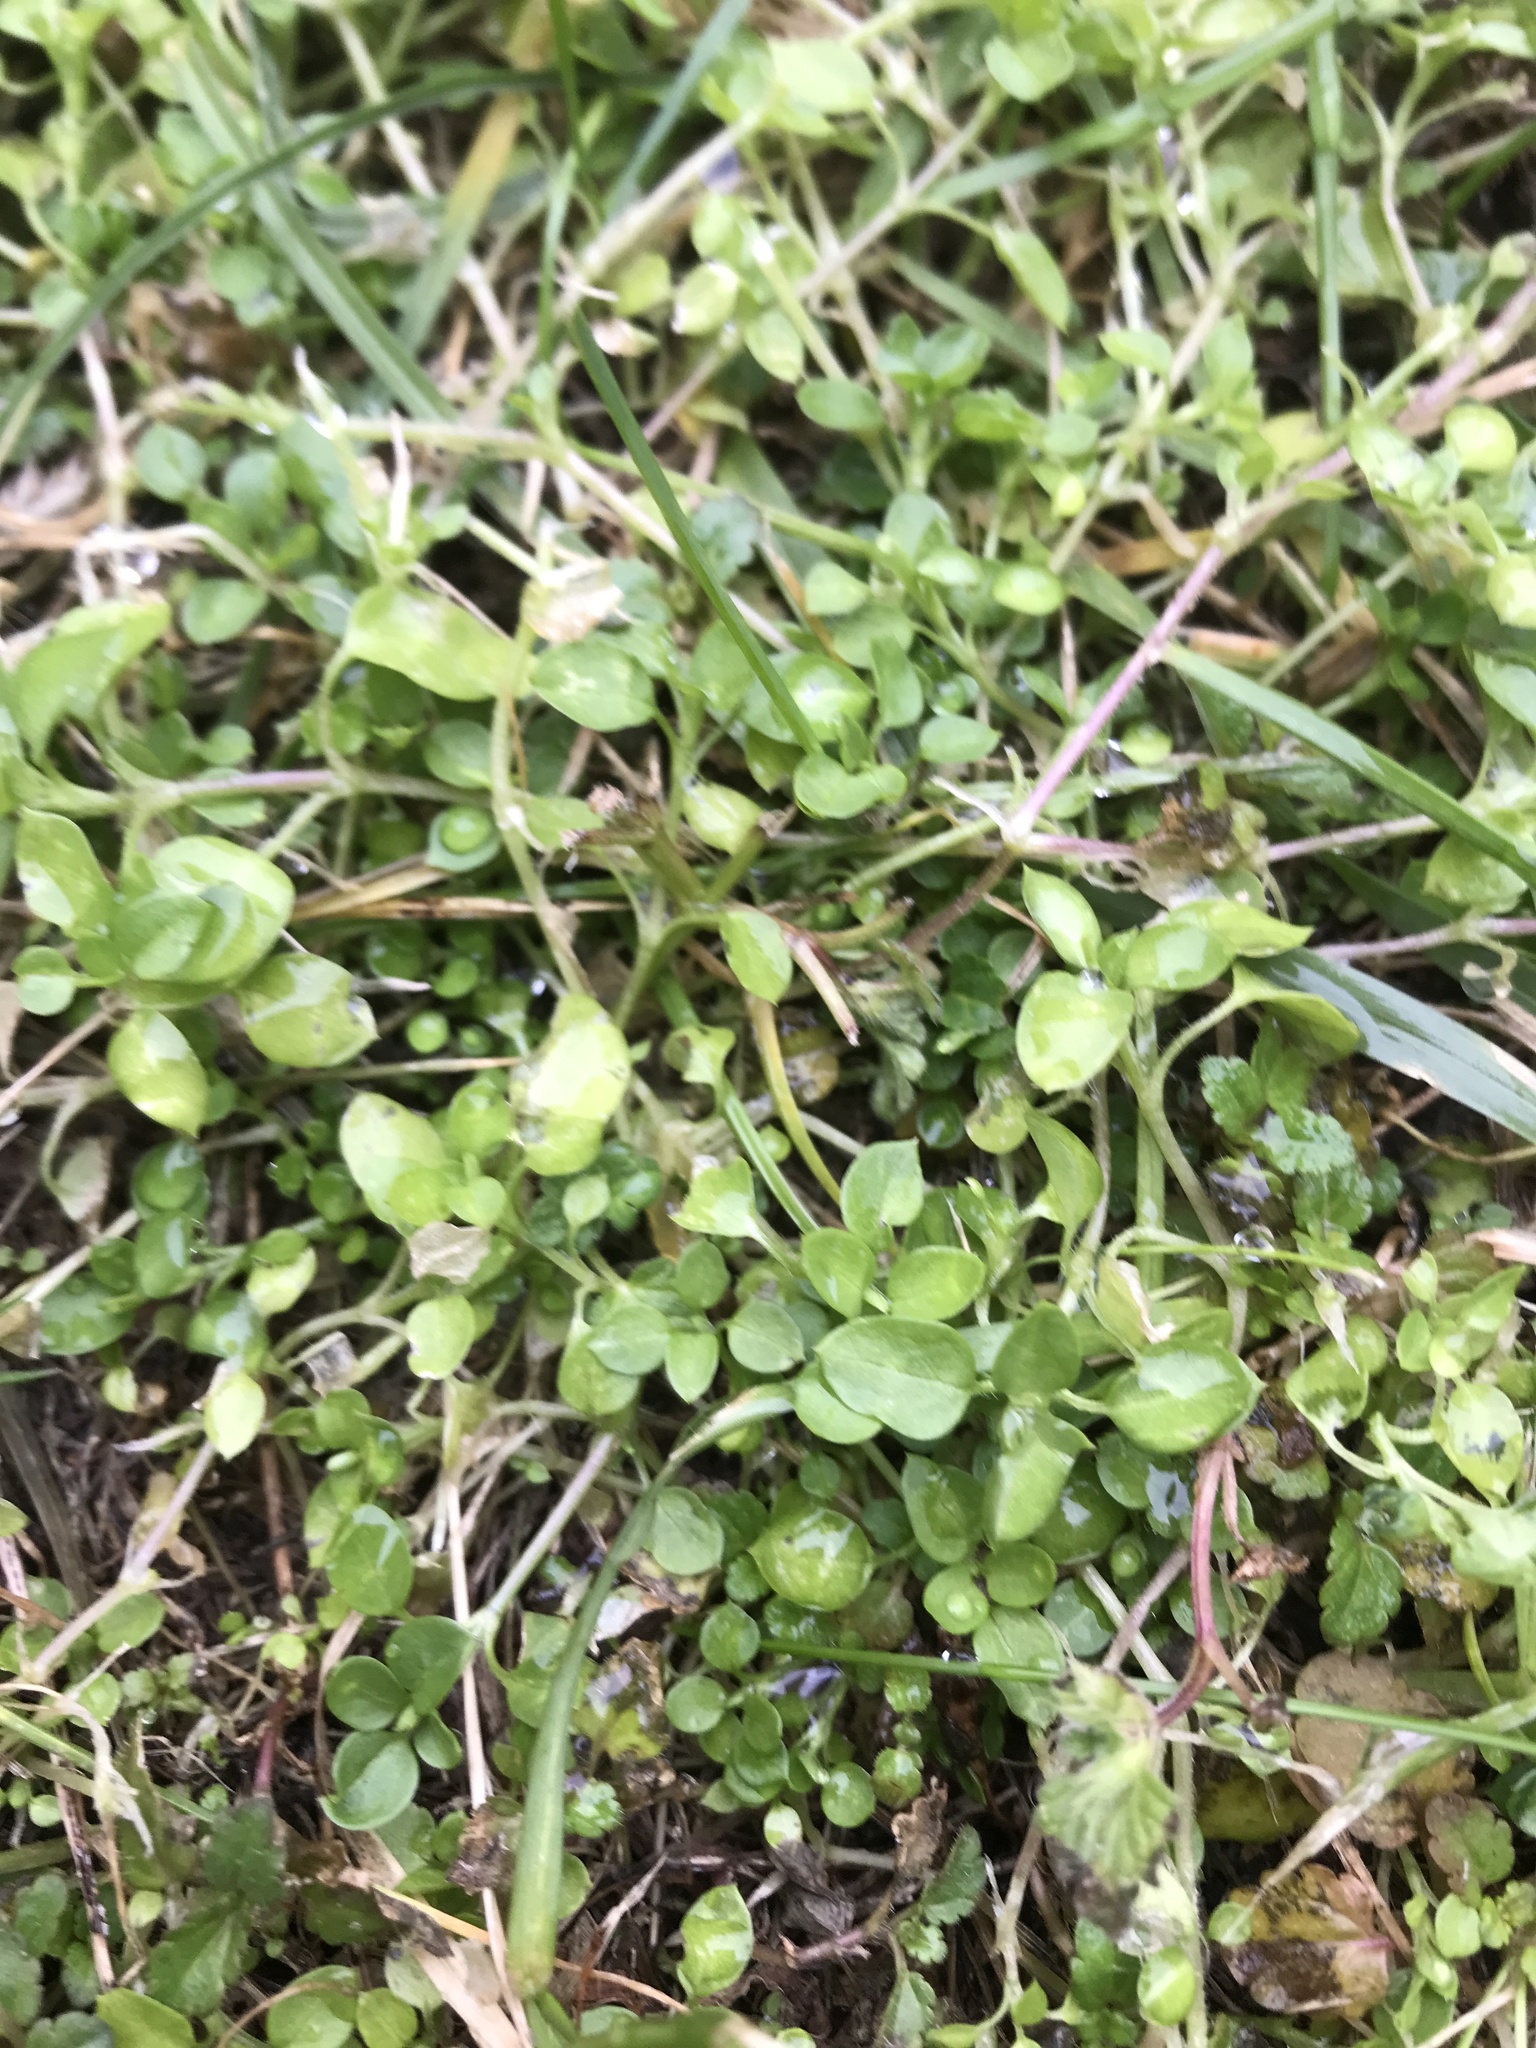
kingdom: Plantae
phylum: Tracheophyta
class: Magnoliopsida
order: Caryophyllales
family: Caryophyllaceae
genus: Stellaria
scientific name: Stellaria media
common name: Common chickweed
